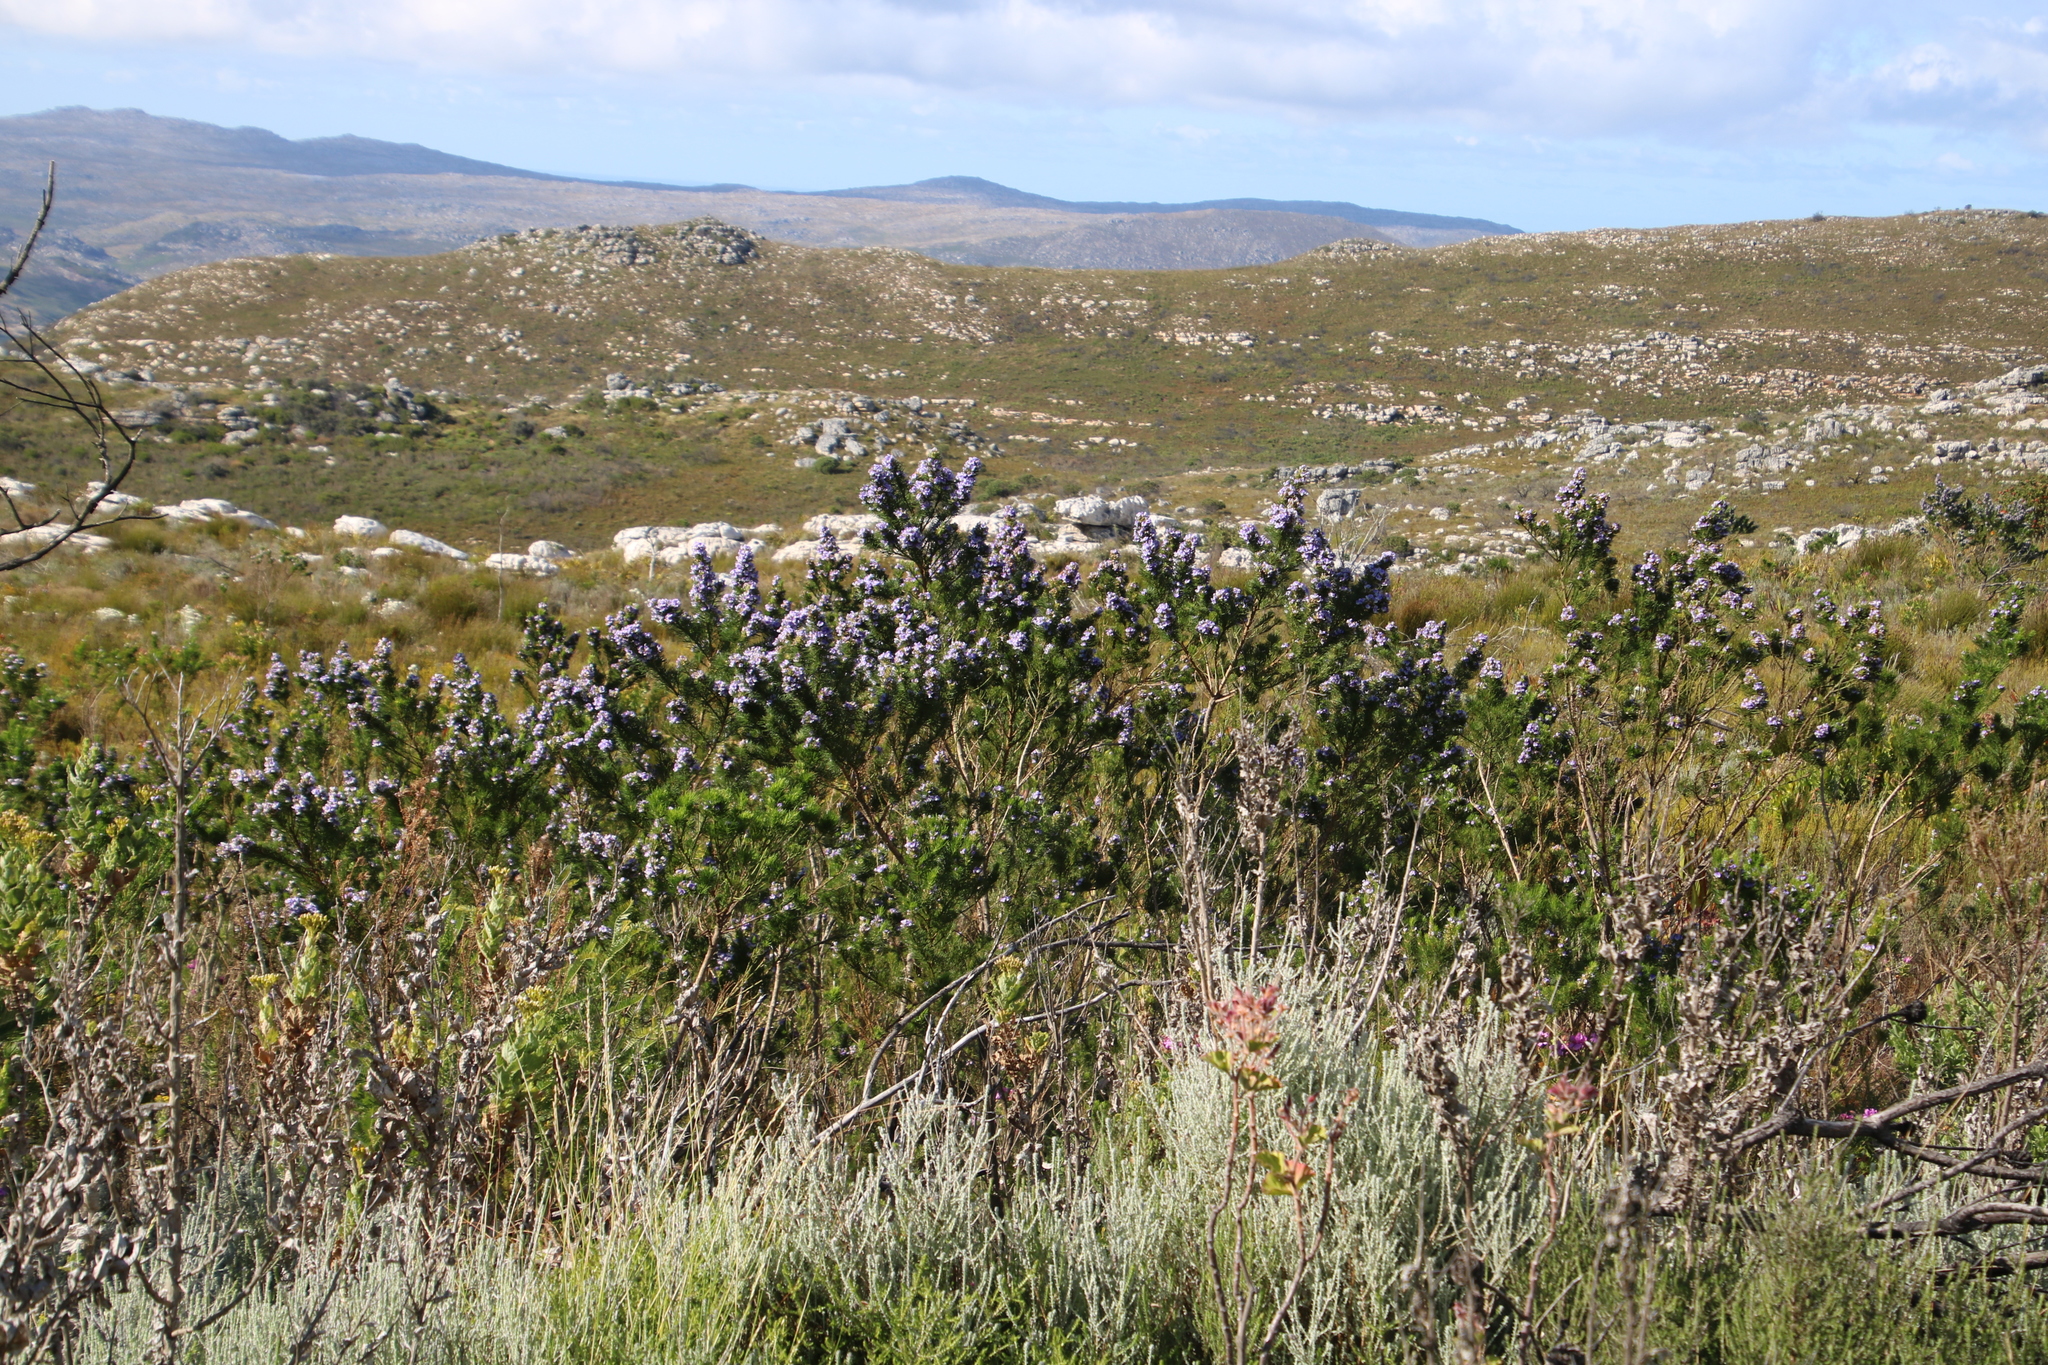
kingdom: Plantae
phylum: Tracheophyta
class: Magnoliopsida
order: Fabales
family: Fabaceae
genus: Psoralea
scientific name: Psoralea pinnata
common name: African scurfpea
